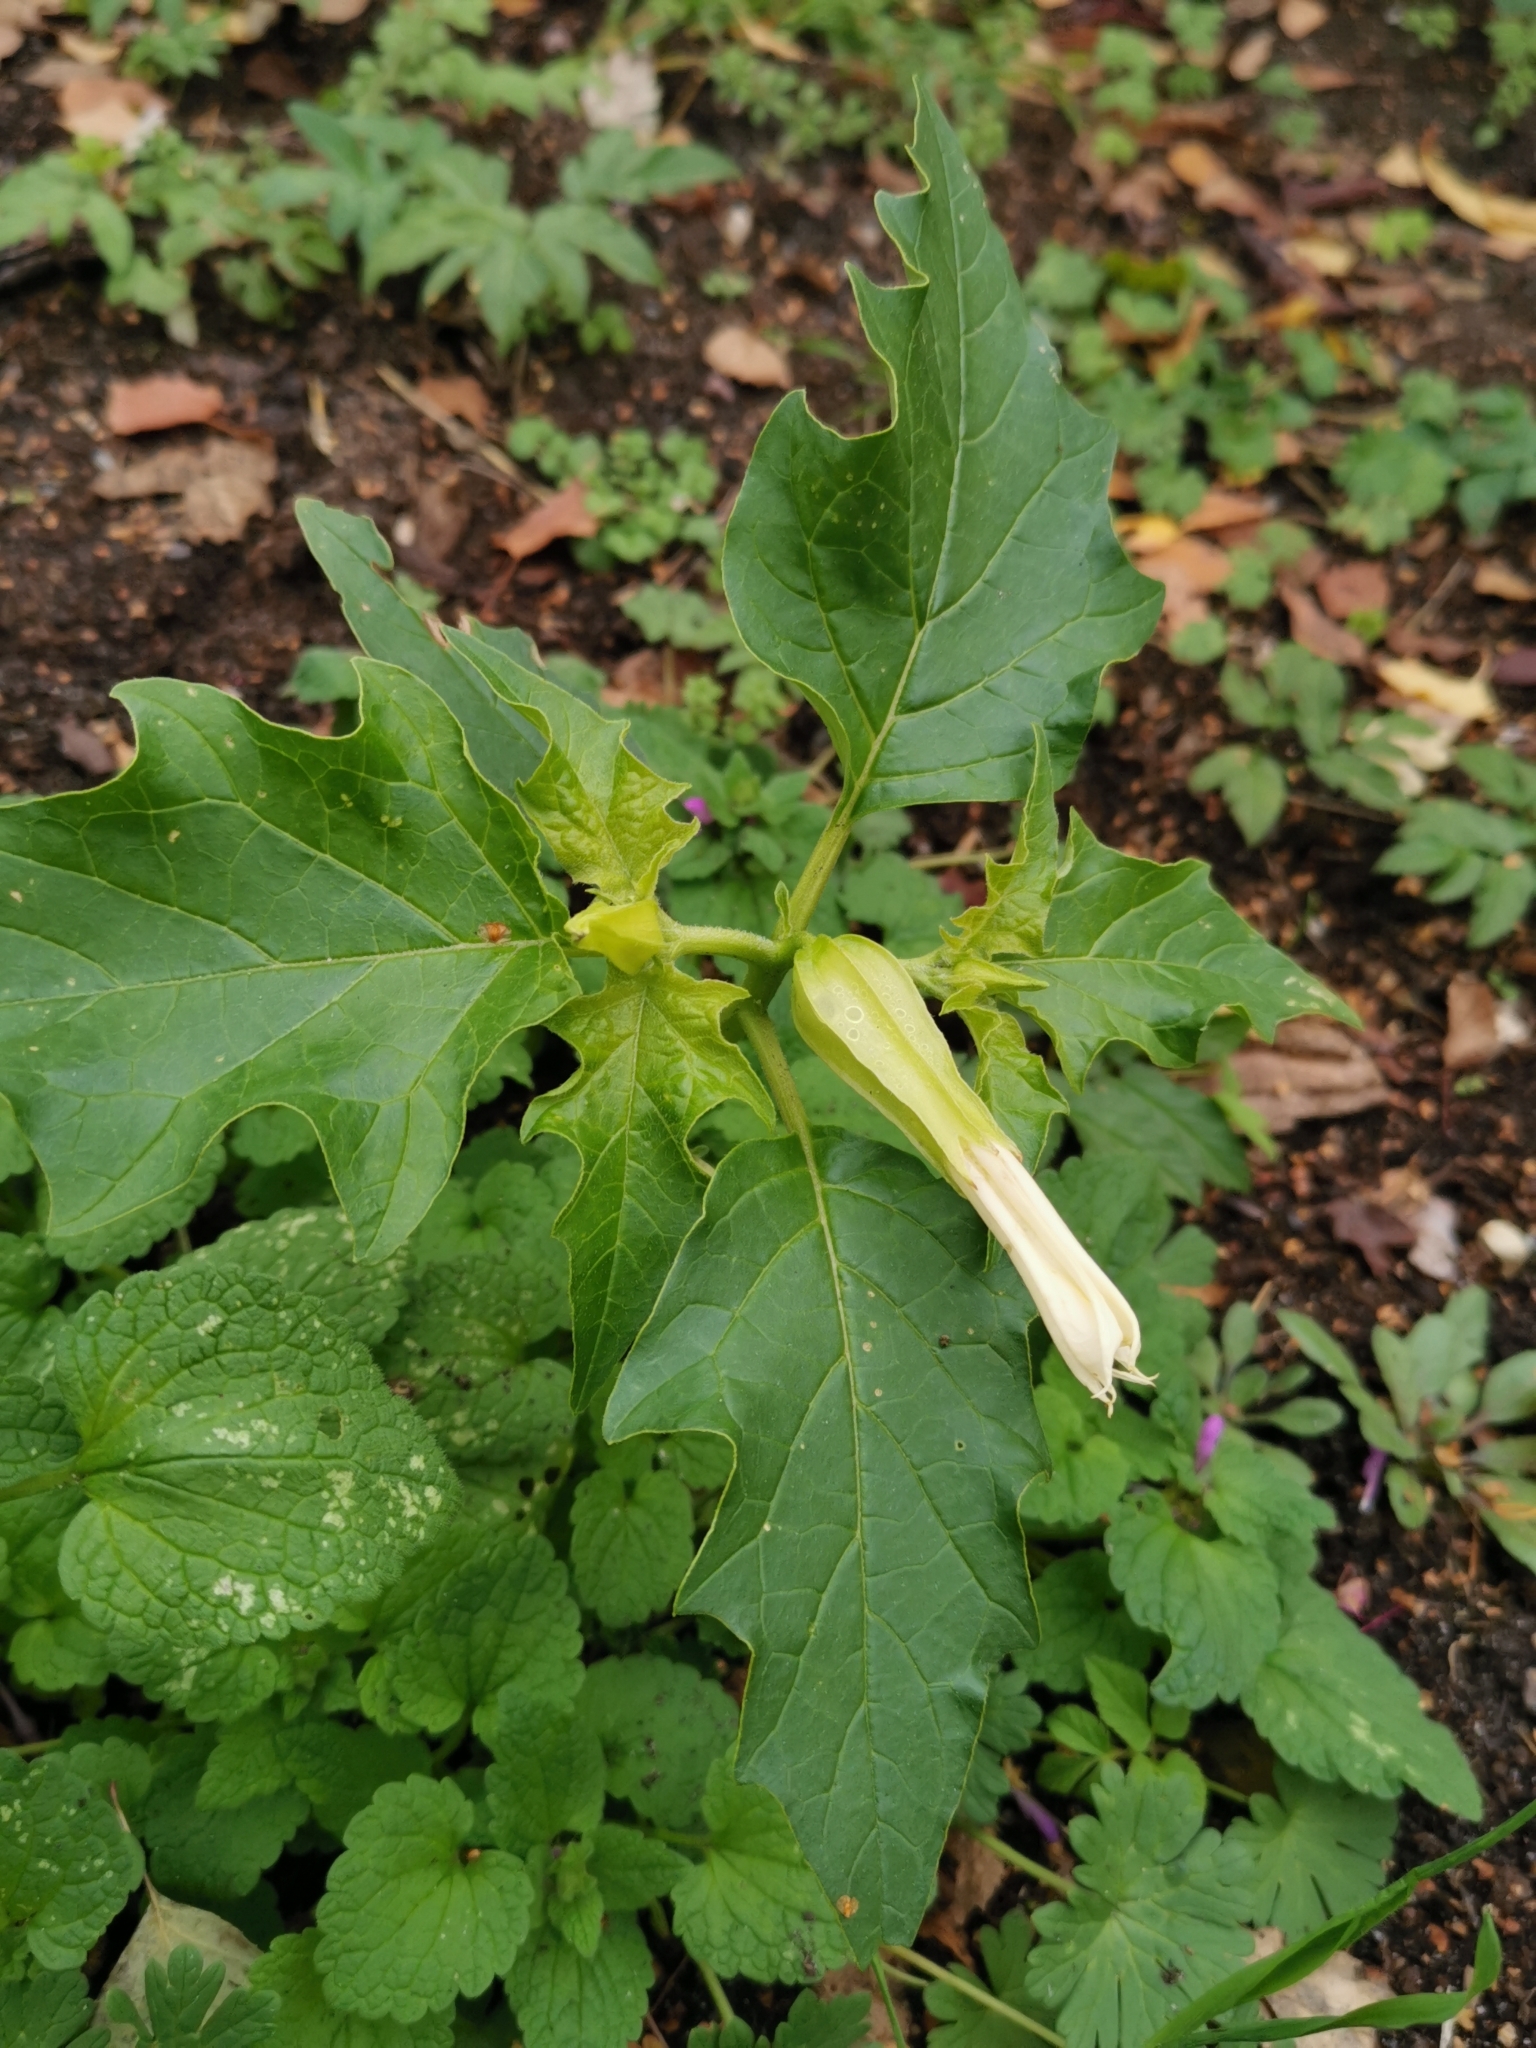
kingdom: Plantae
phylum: Tracheophyta
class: Magnoliopsida
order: Solanales
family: Solanaceae
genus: Datura
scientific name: Datura stramonium
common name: Thorn-apple
